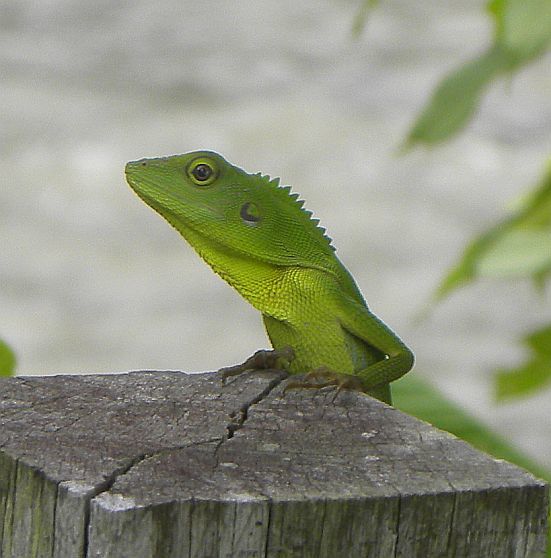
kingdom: Animalia
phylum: Chordata
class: Squamata
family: Agamidae
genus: Bronchocela
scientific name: Bronchocela cristatella
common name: Green crested lizard
